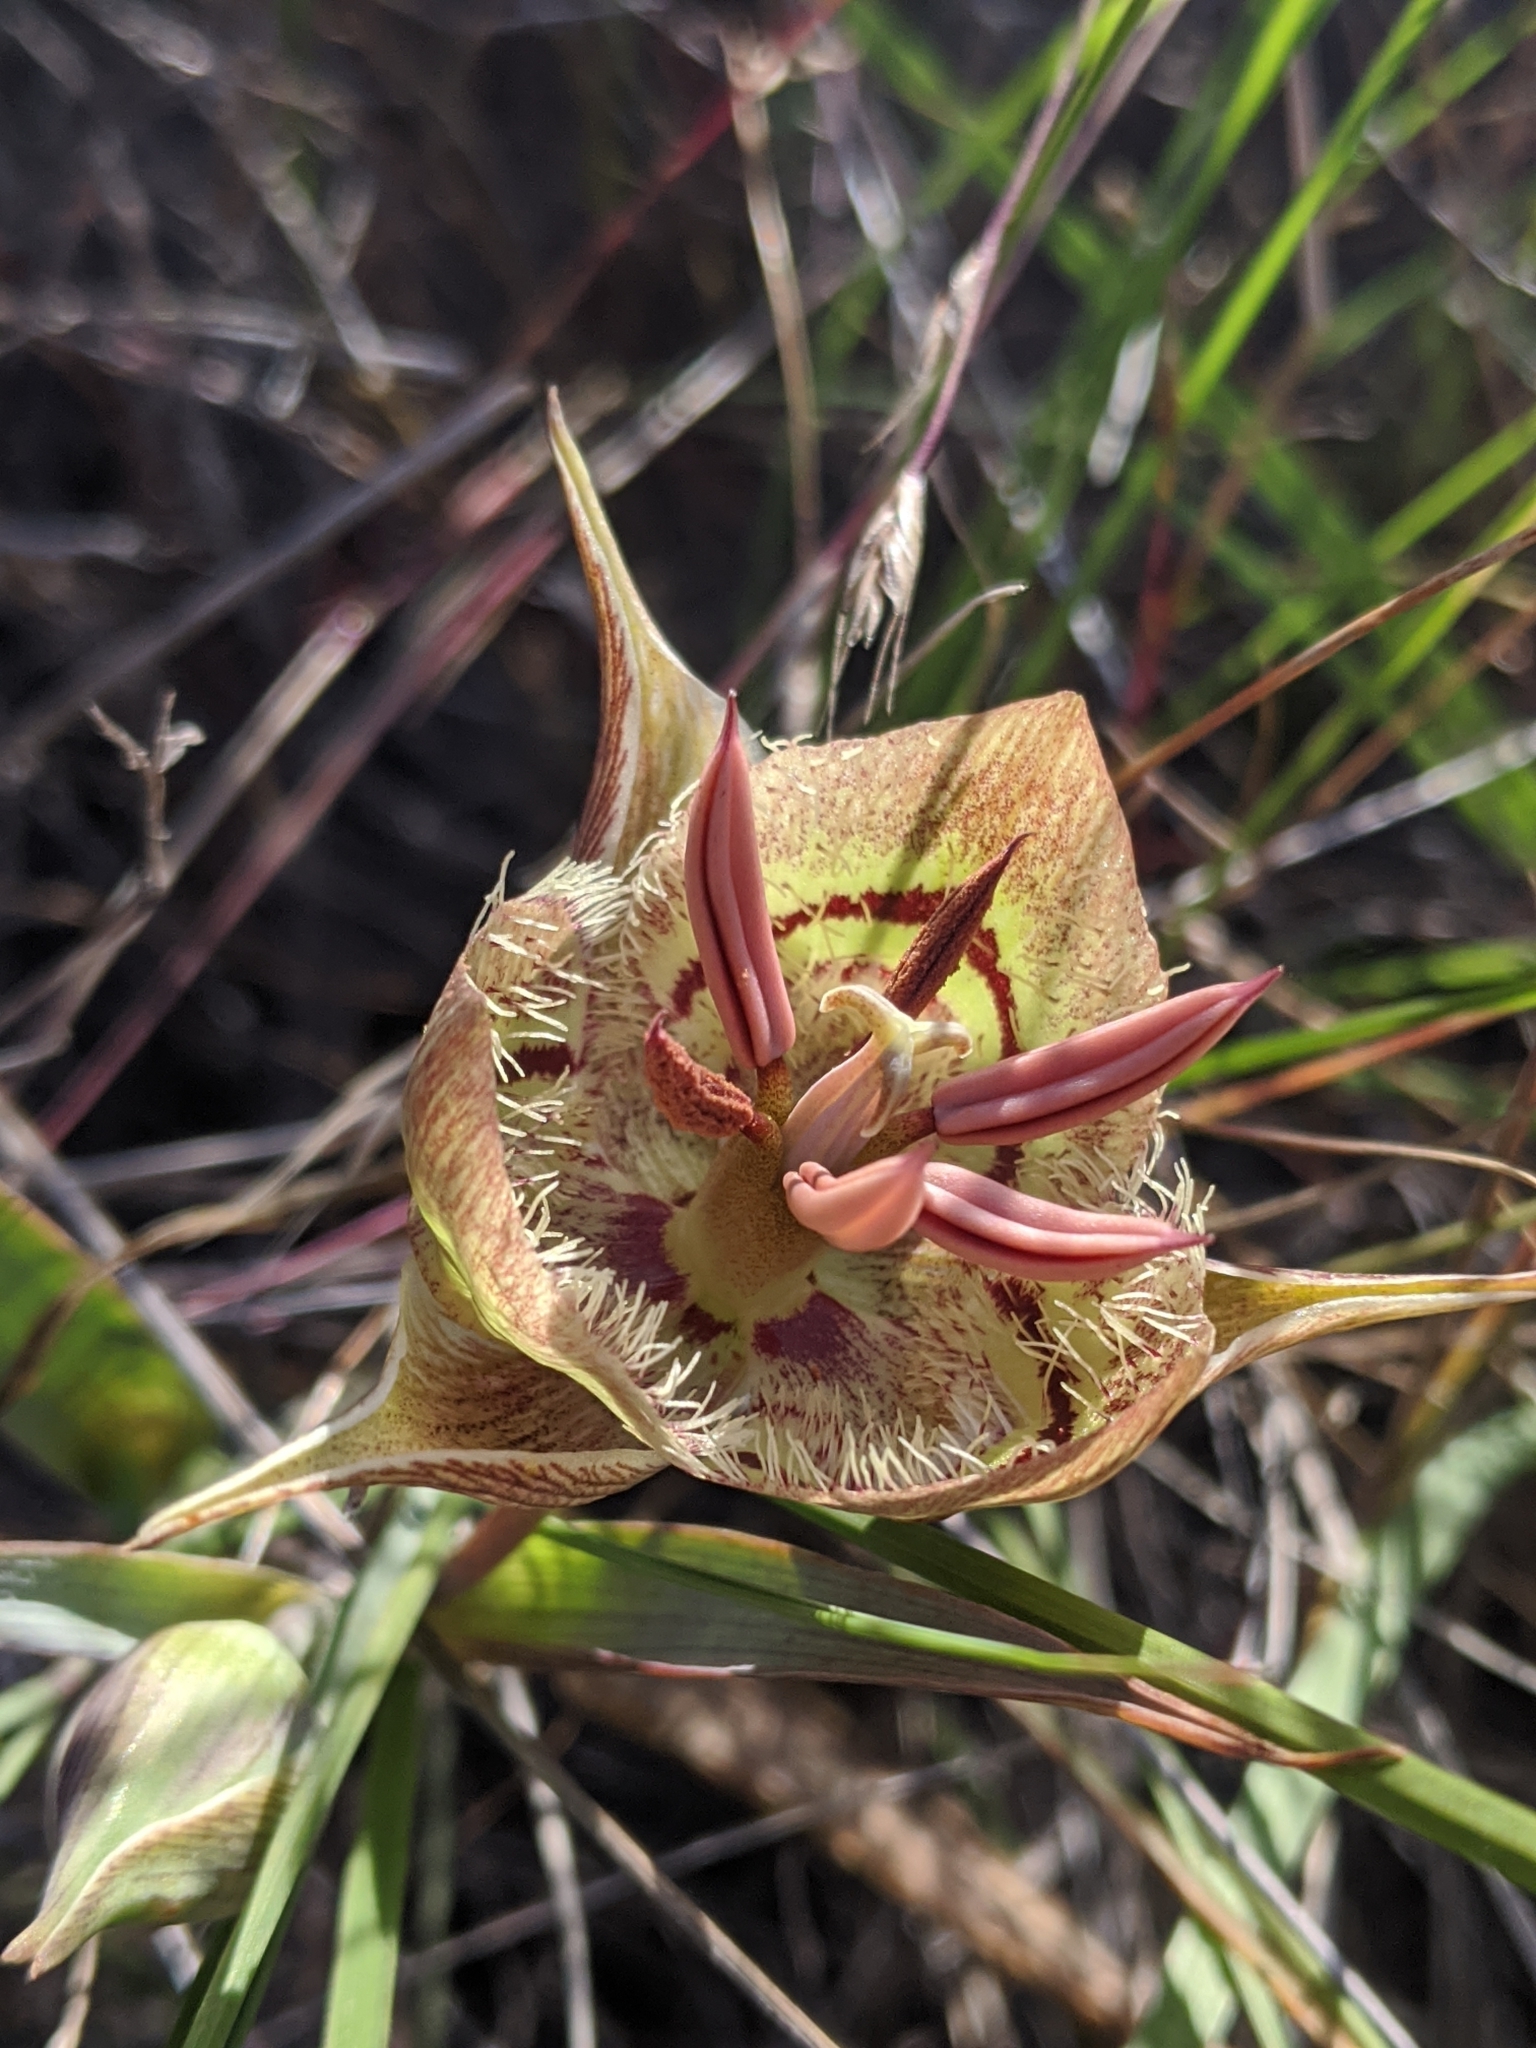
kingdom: Plantae
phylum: Tracheophyta
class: Liliopsida
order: Liliales
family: Liliaceae
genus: Calochortus
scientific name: Calochortus tiburonensis
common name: Tiburon mariposa-lily
